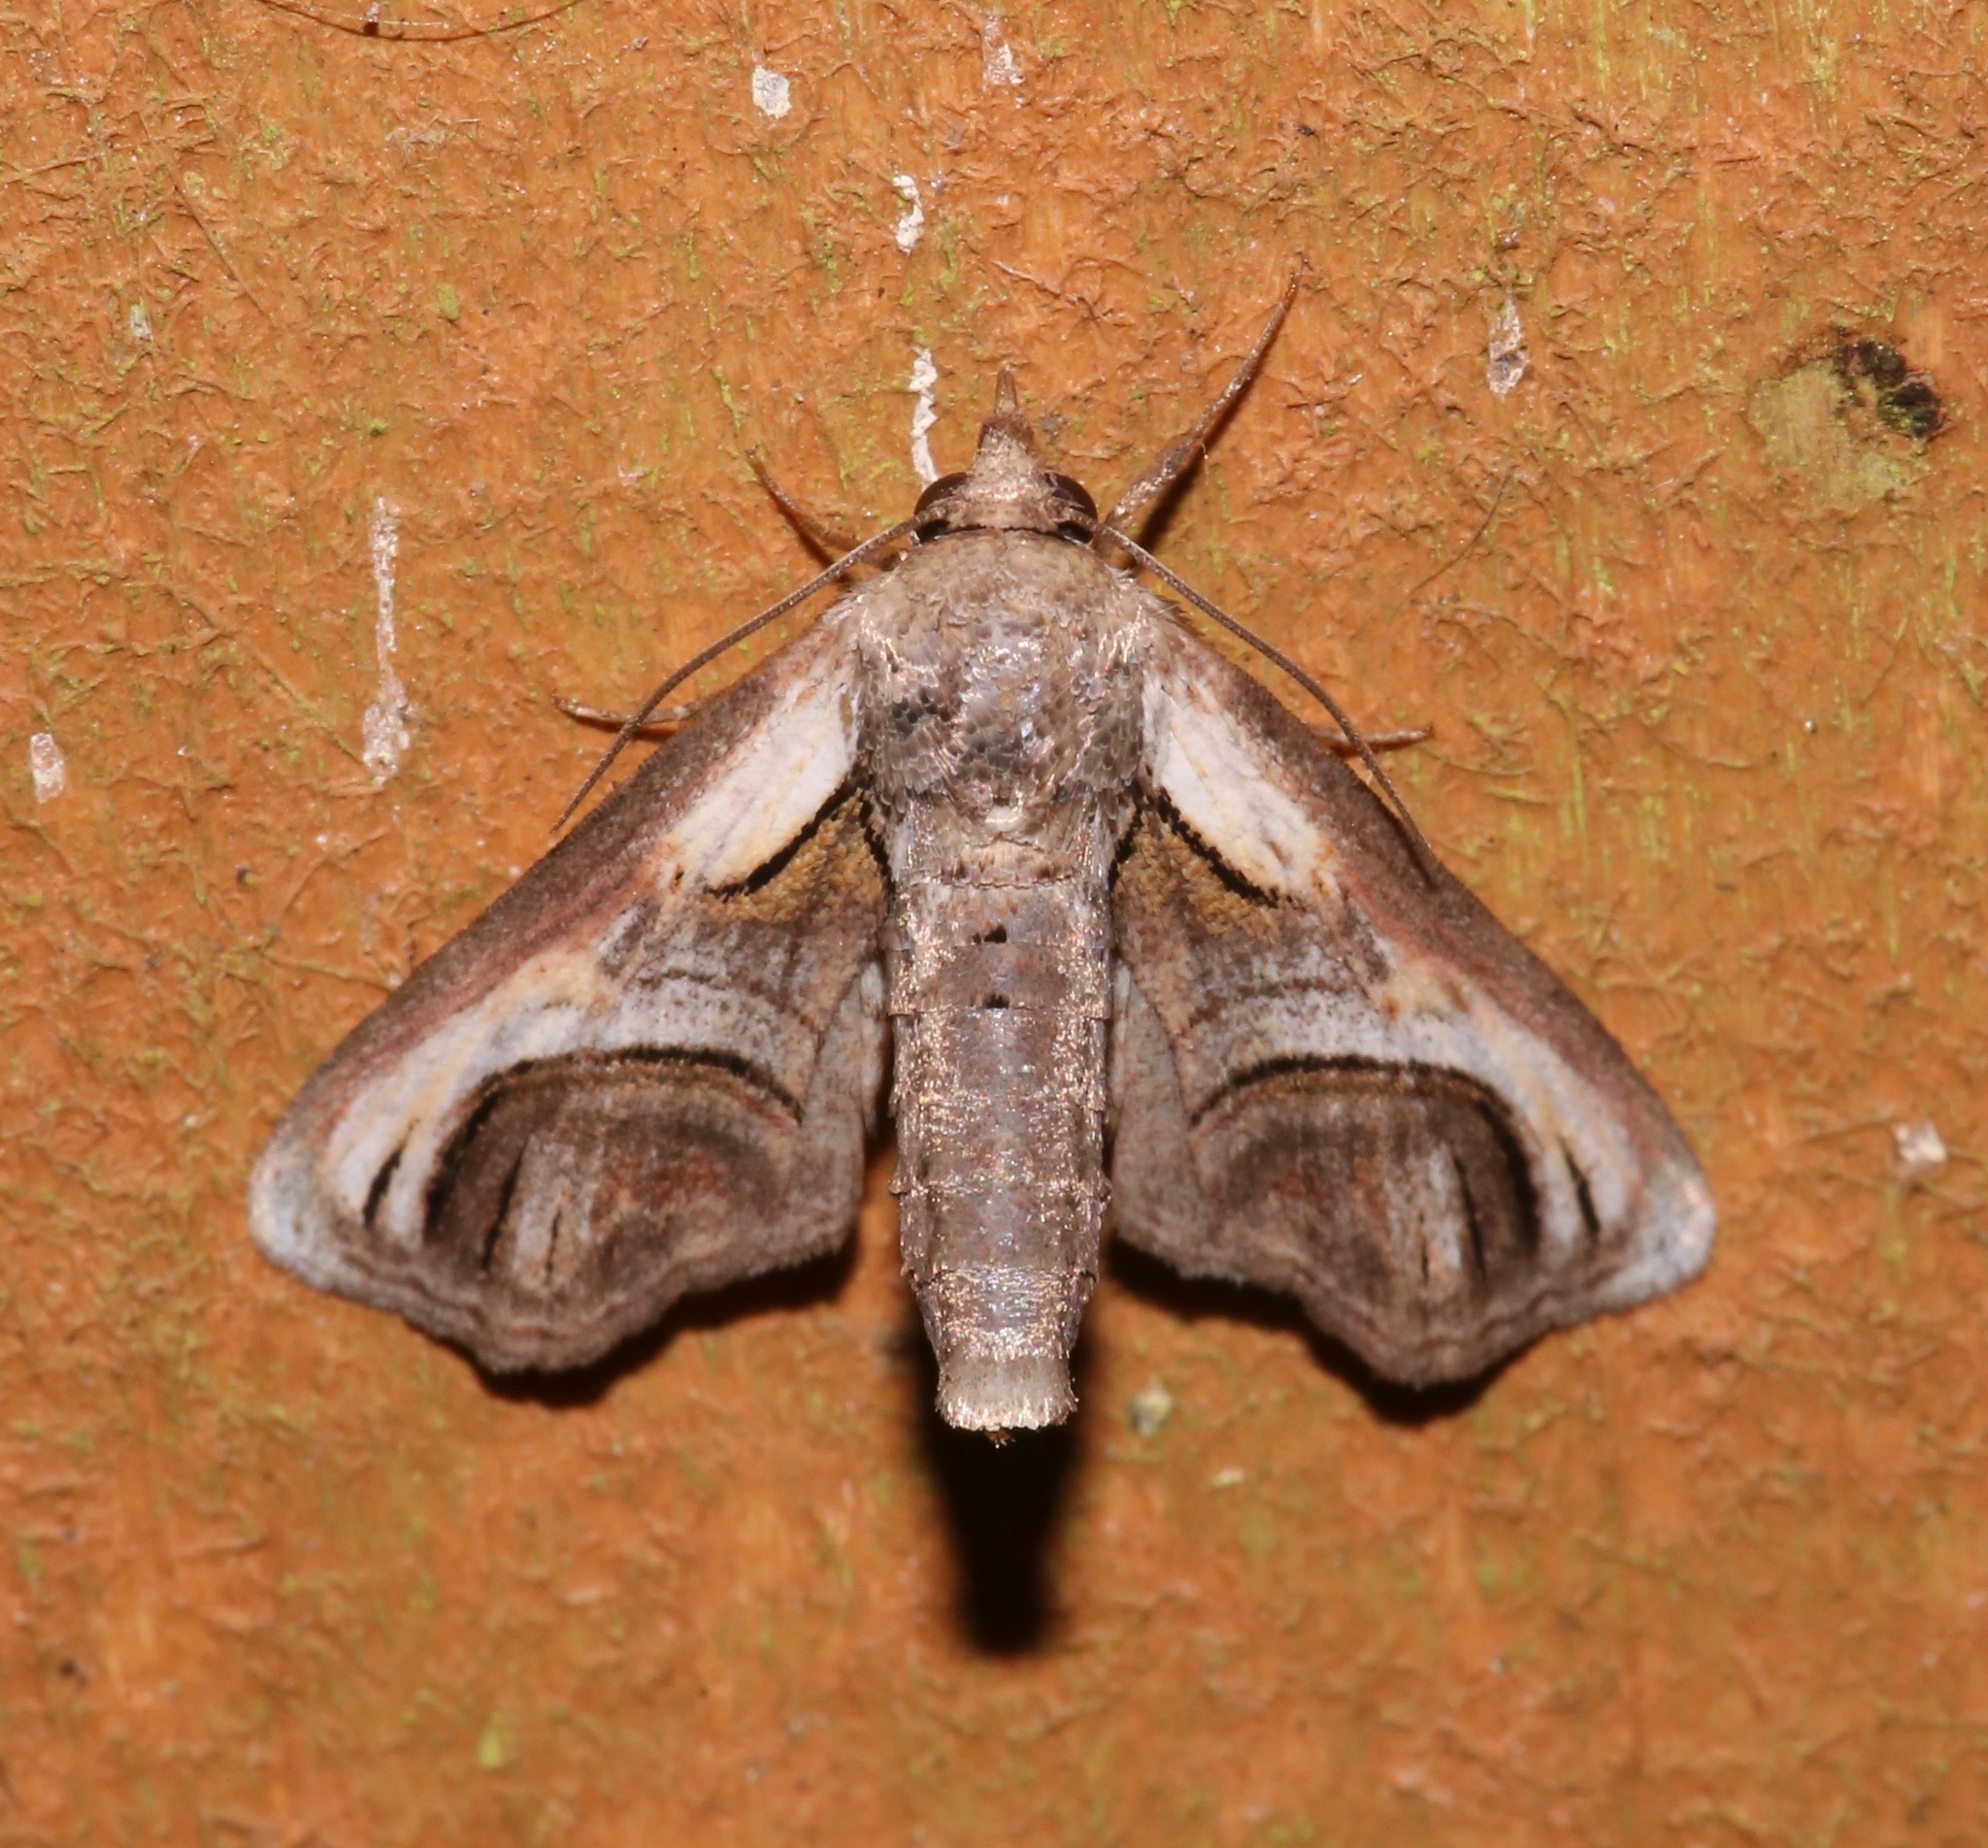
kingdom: Animalia
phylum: Arthropoda
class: Insecta
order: Lepidoptera
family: Euteliidae
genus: Paectes
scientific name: Paectes oculatrix
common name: Eyed paectes moth
